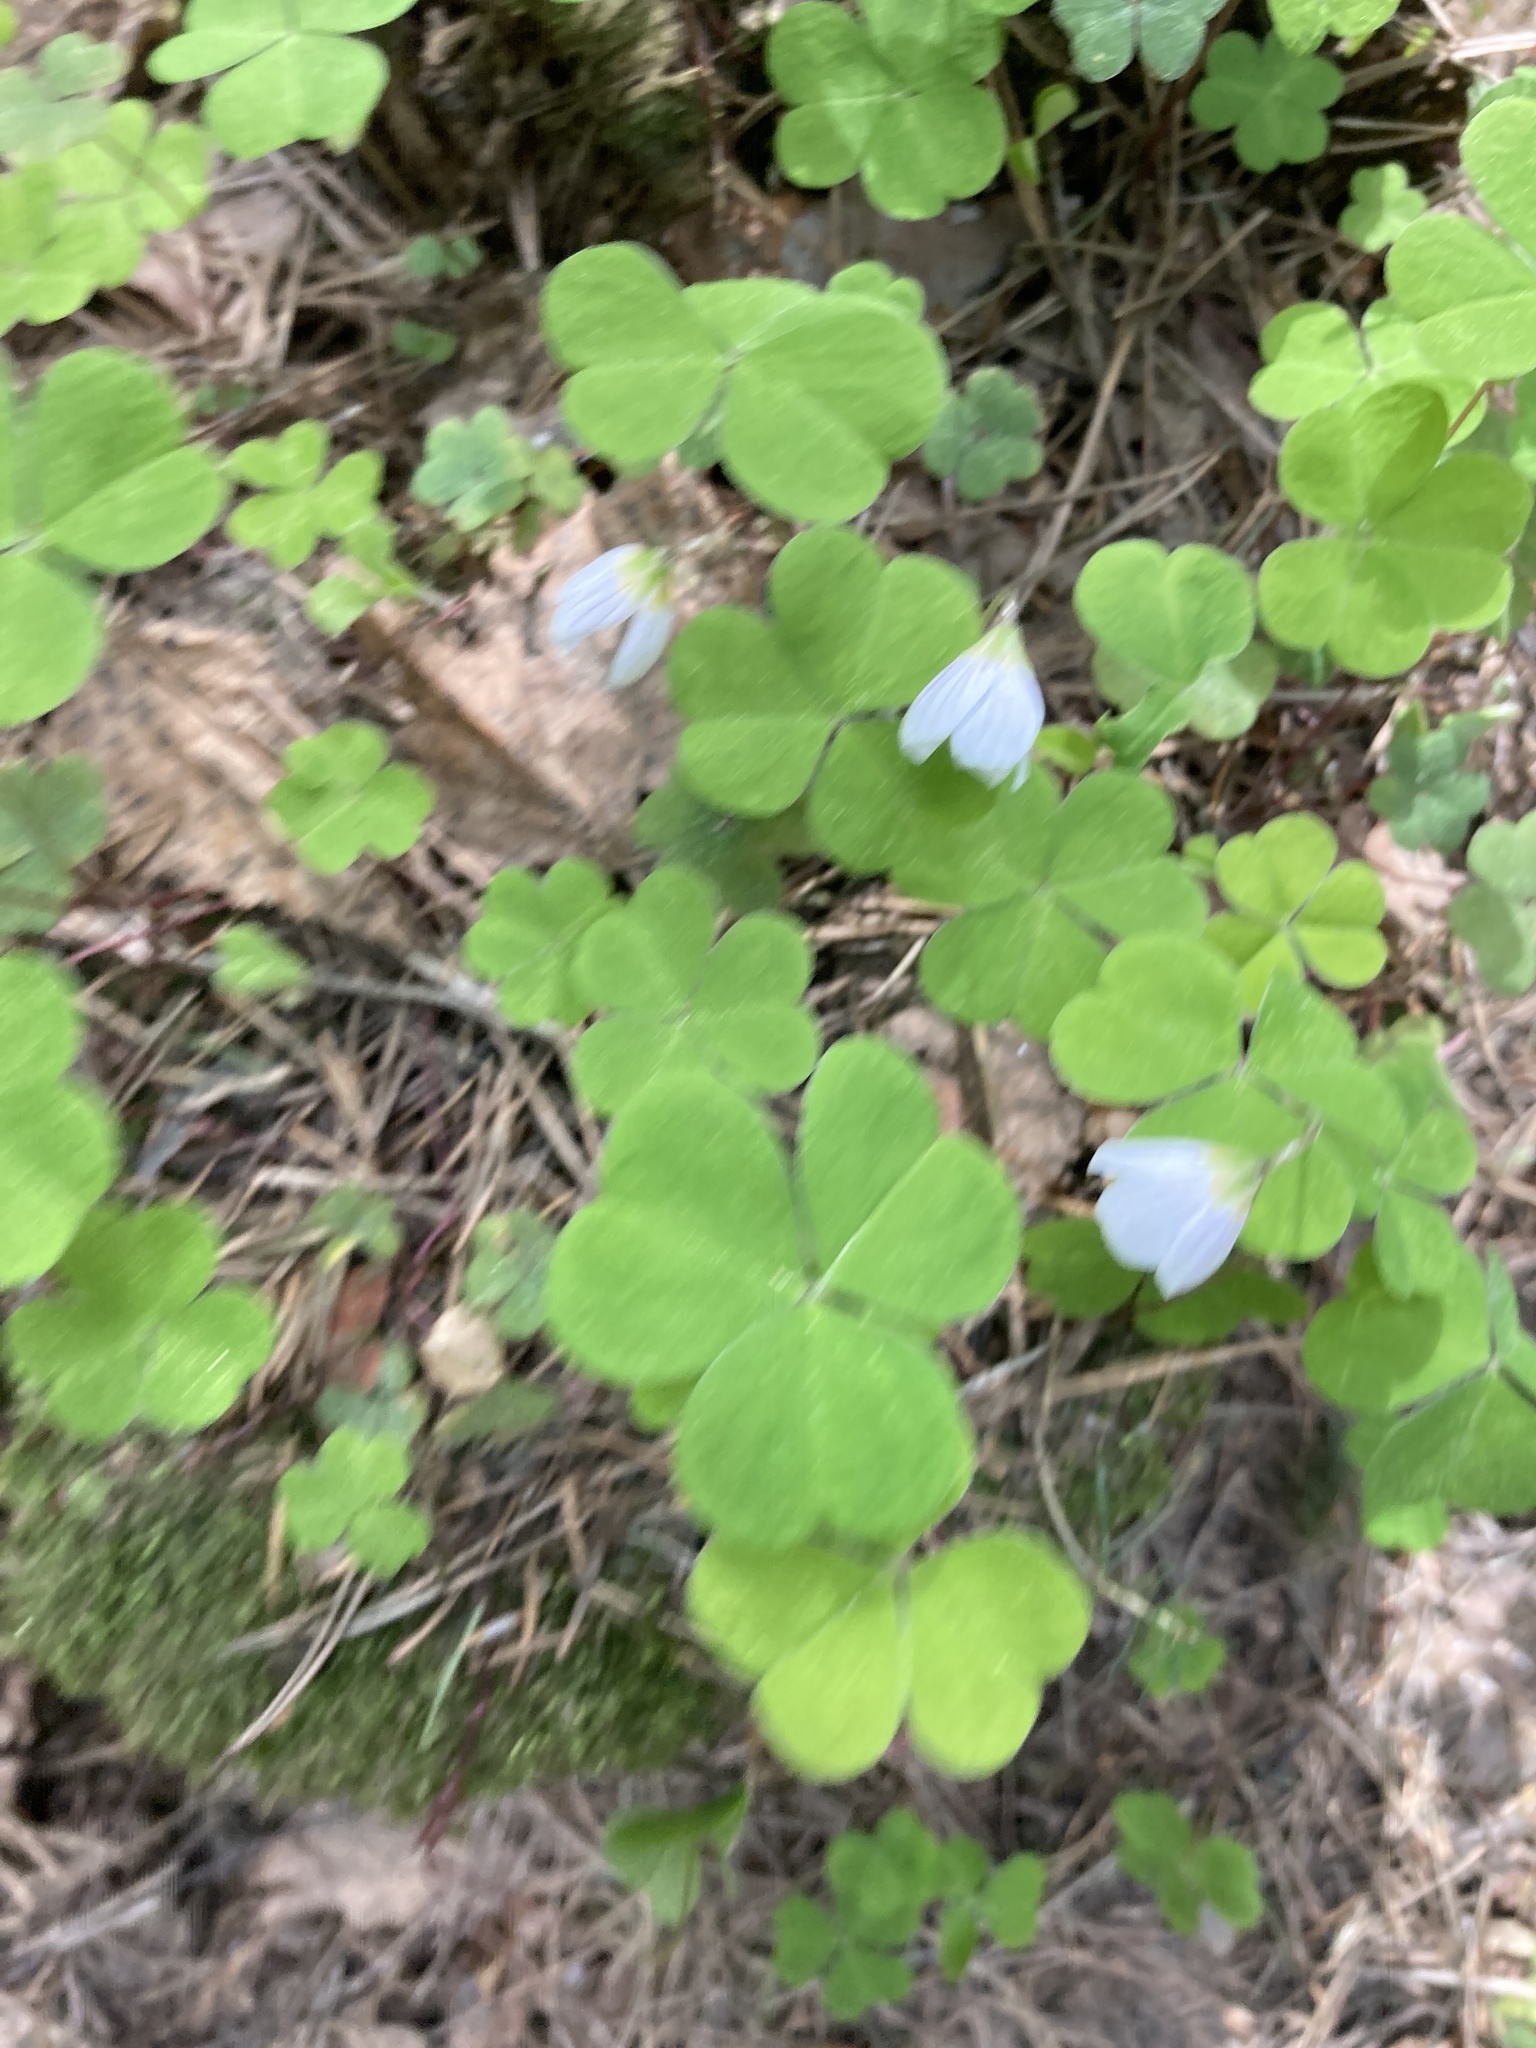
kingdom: Plantae
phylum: Tracheophyta
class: Magnoliopsida
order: Oxalidales
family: Oxalidaceae
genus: Oxalis
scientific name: Oxalis acetosella
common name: Wood-sorrel
